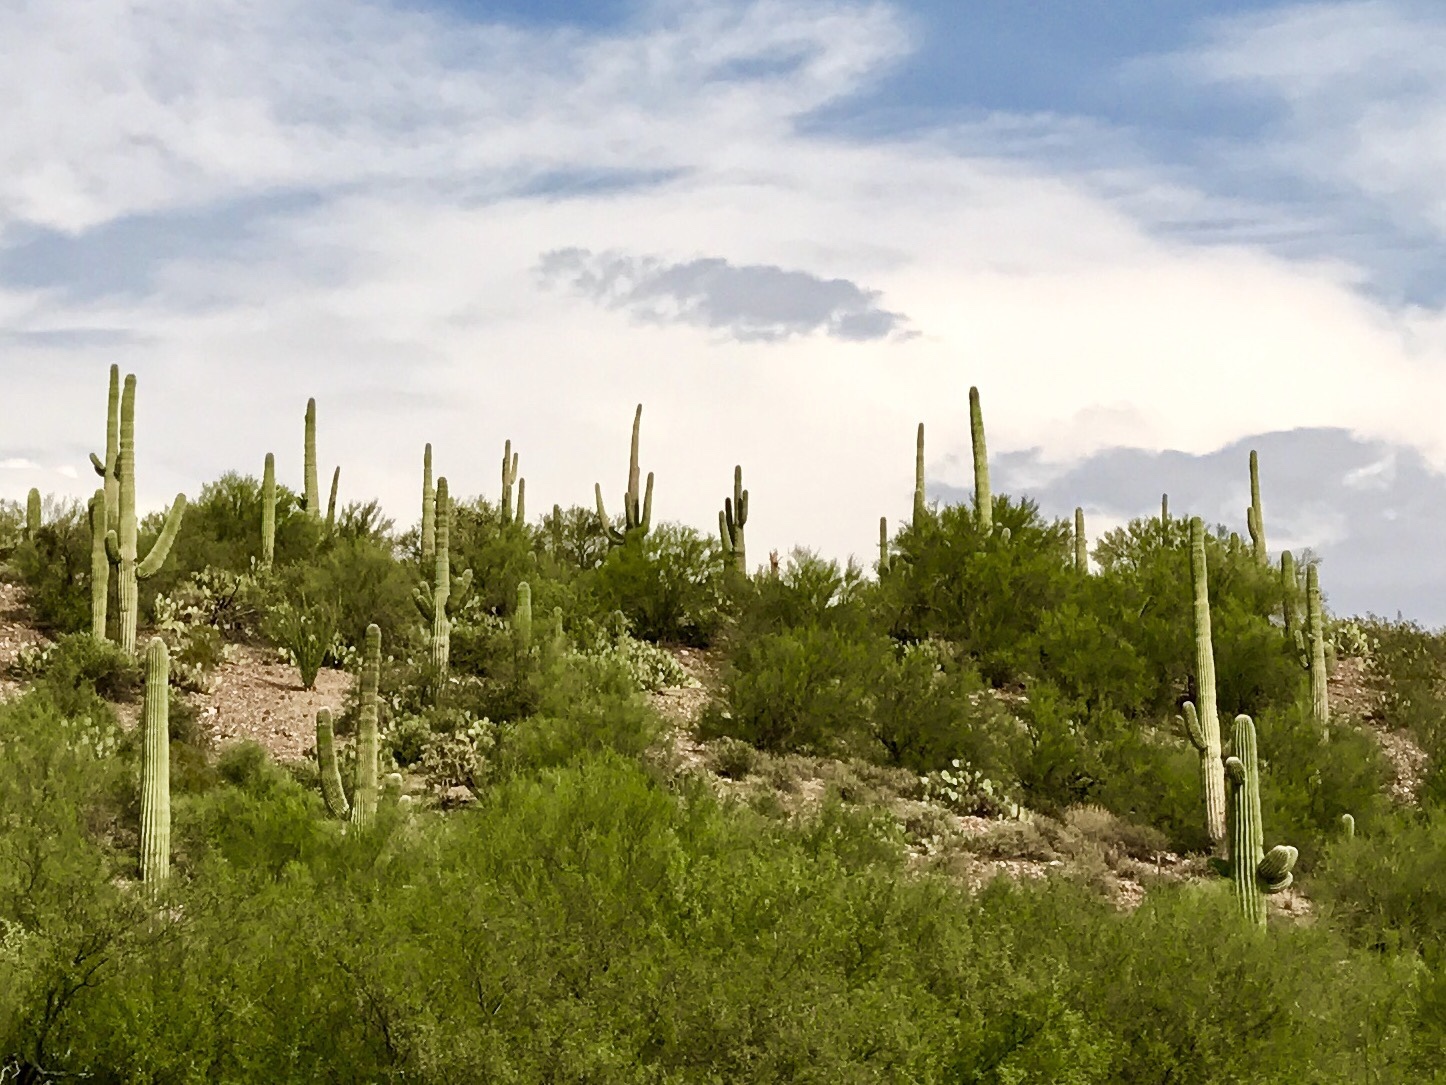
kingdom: Plantae
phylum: Tracheophyta
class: Magnoliopsida
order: Caryophyllales
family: Cactaceae
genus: Carnegiea
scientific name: Carnegiea gigantea
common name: Saguaro
